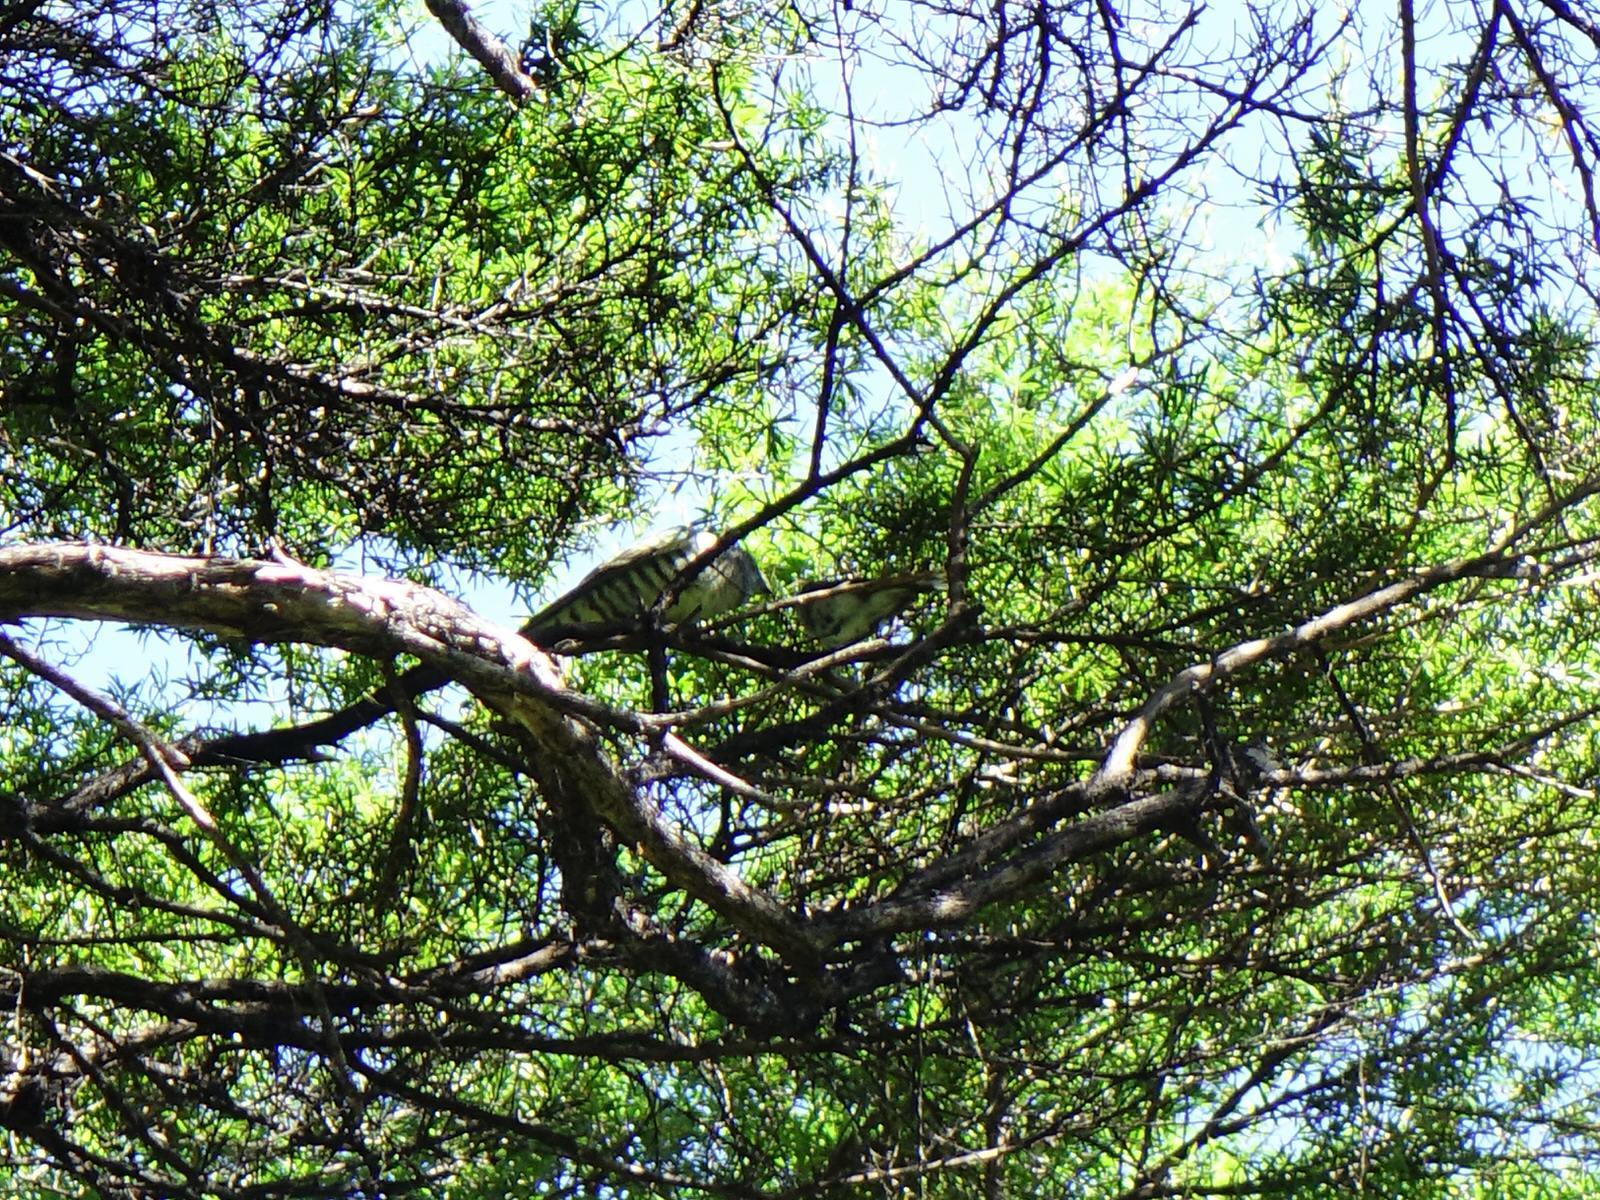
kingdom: Animalia
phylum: Chordata
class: Aves
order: Cuculiformes
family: Cuculidae
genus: Chrysococcyx
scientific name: Chrysococcyx lucidus
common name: Shining bronze cuckoo
